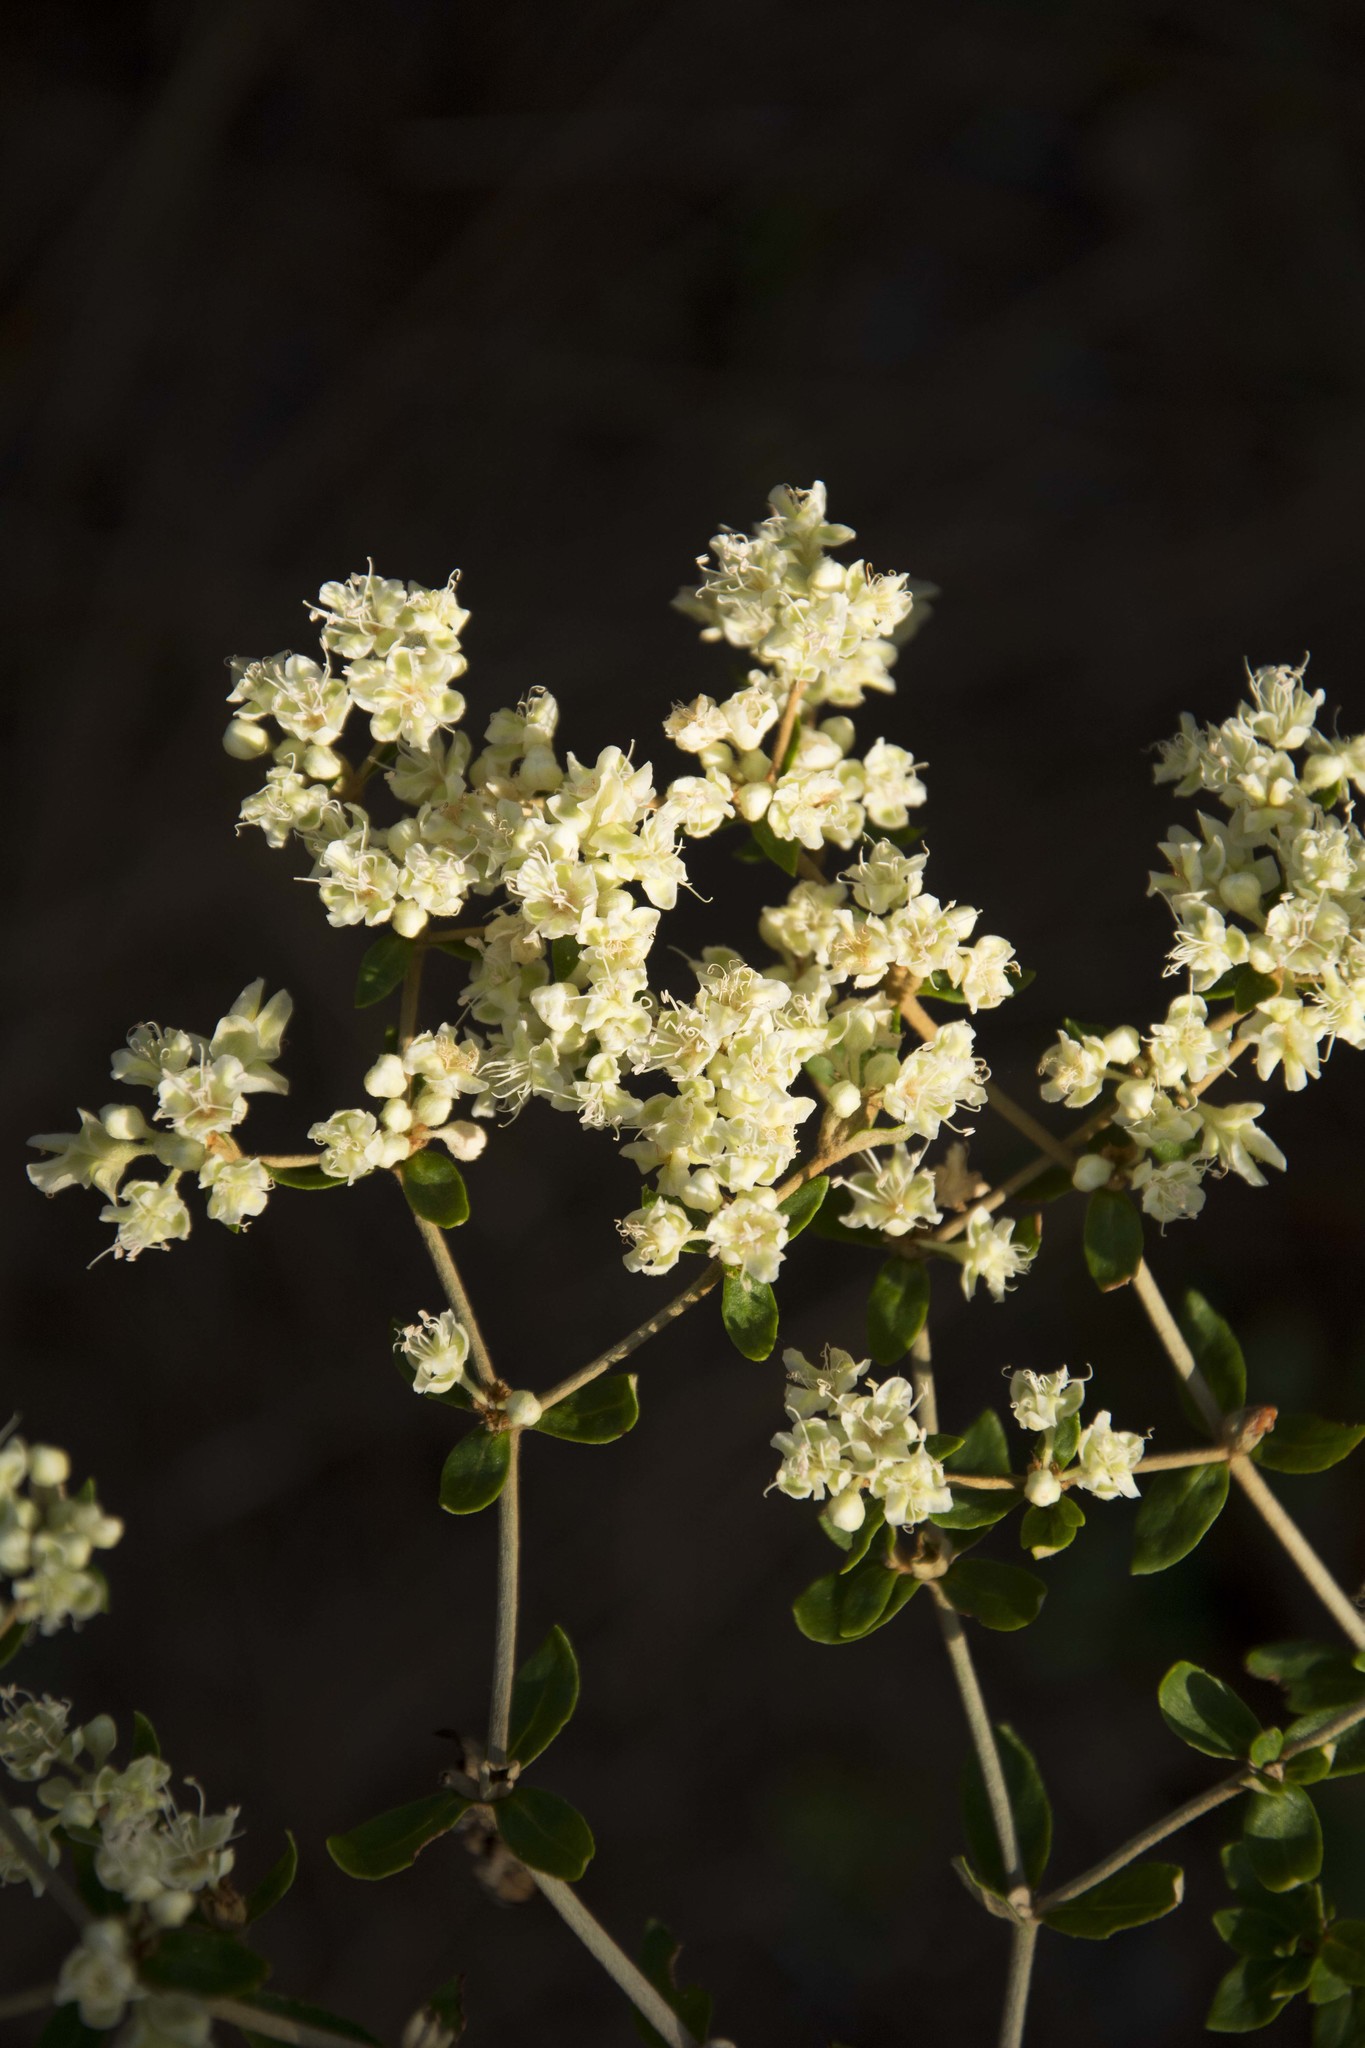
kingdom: Plantae
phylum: Tracheophyta
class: Magnoliopsida
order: Caryophyllales
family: Polygonaceae
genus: Eriogonum
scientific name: Eriogonum tomentosum
